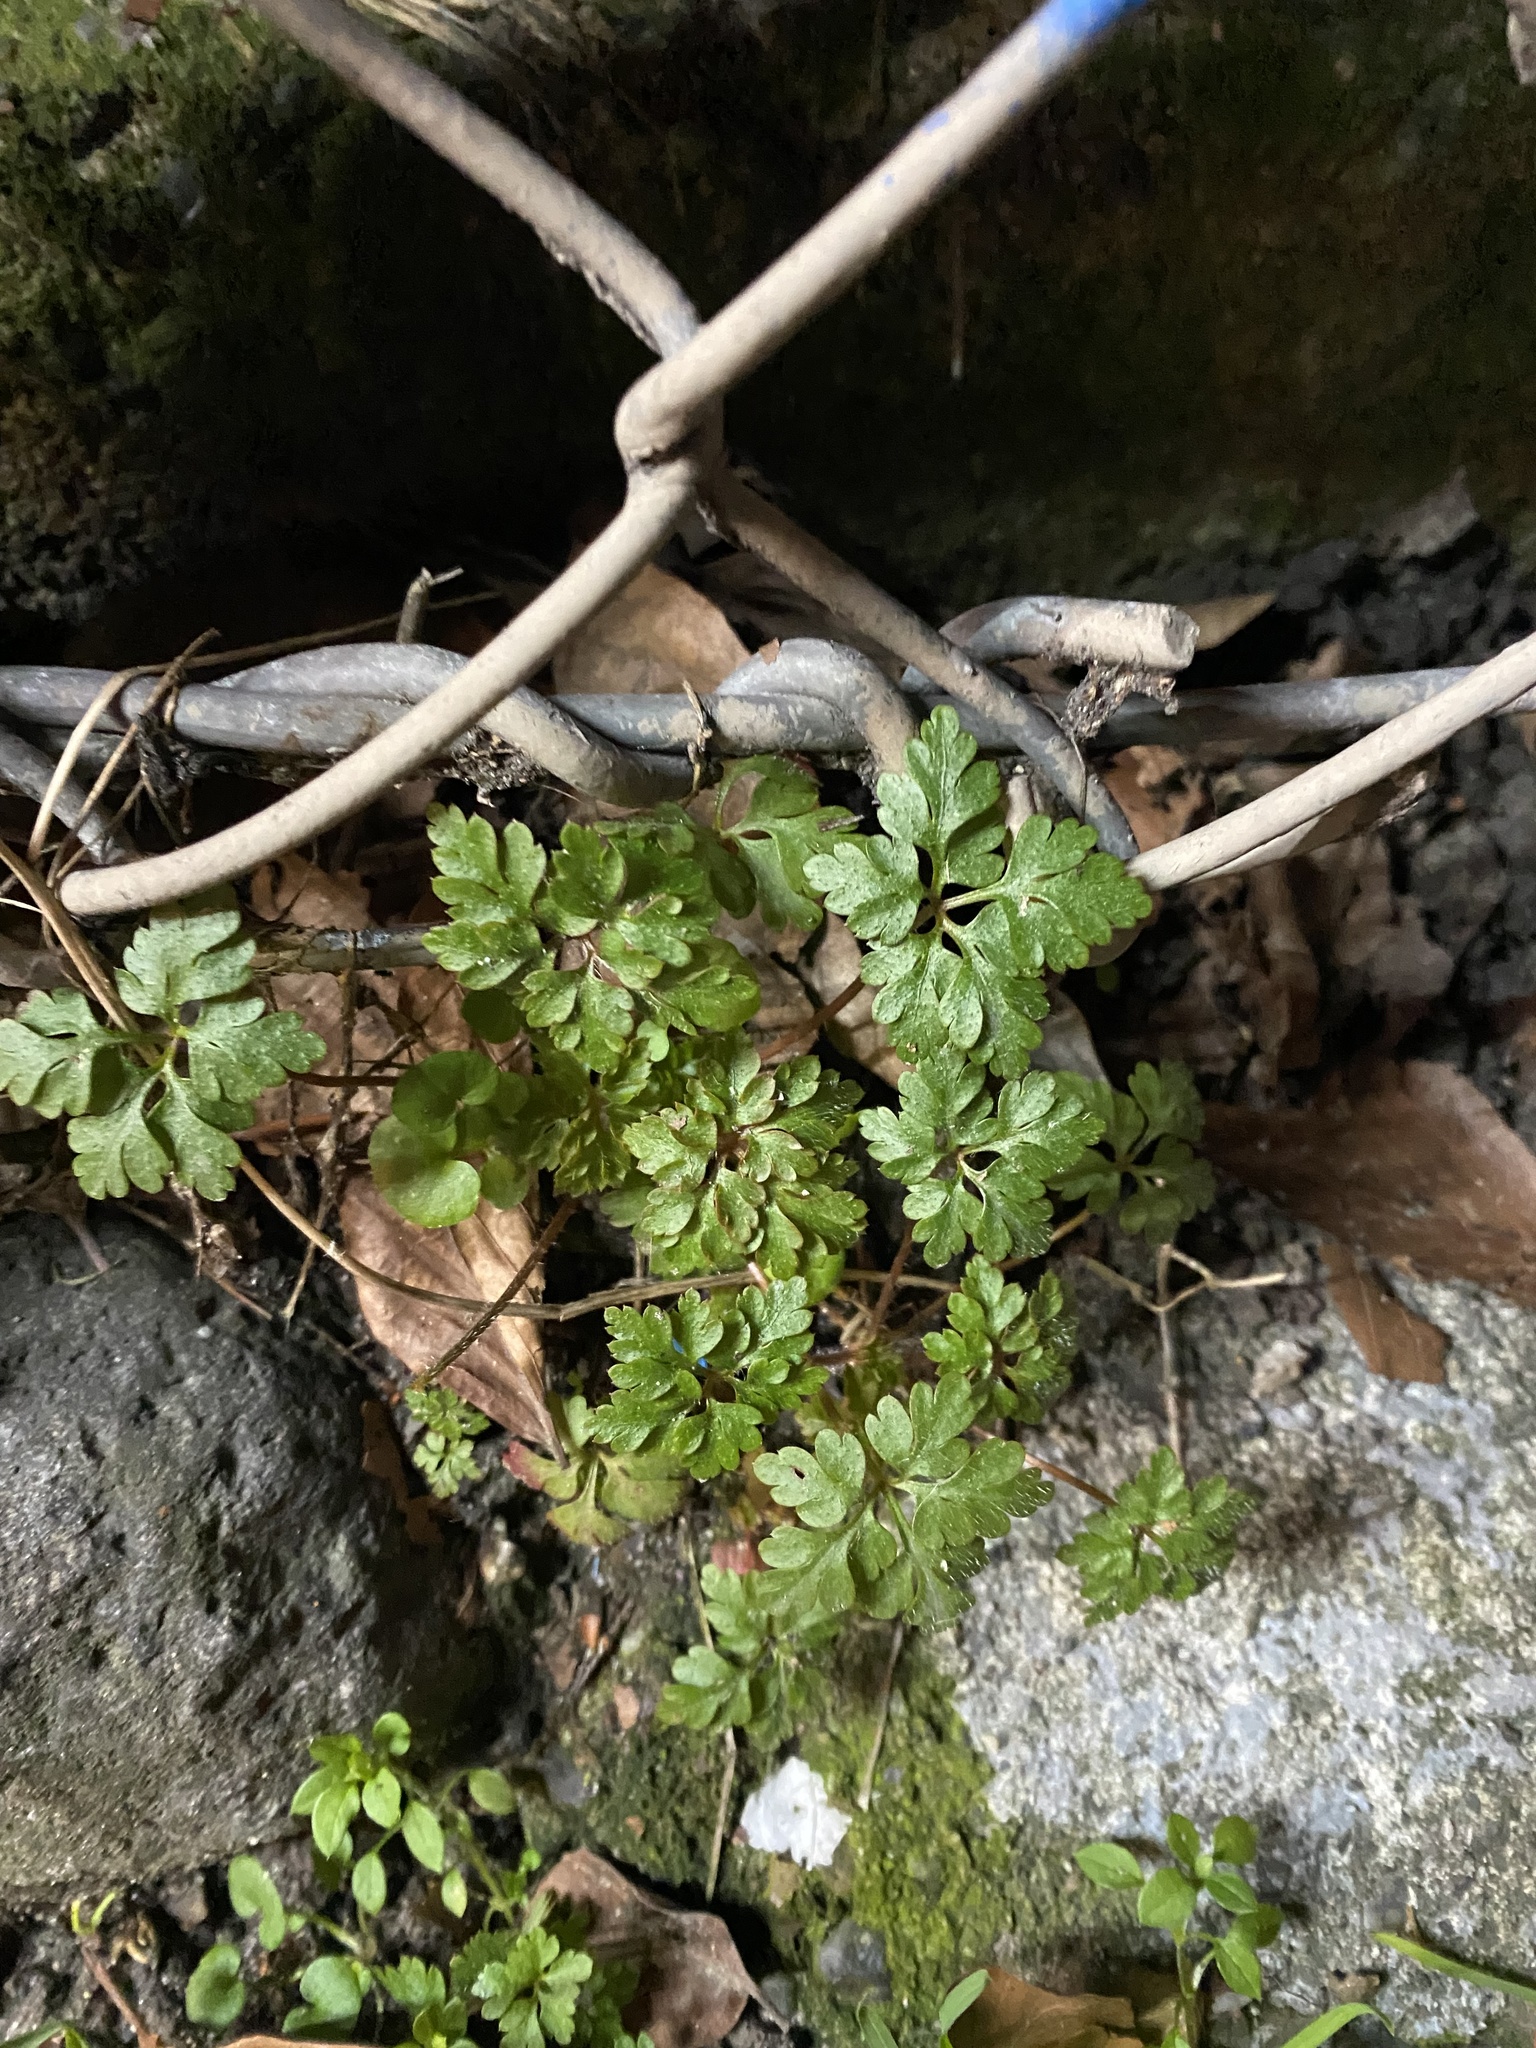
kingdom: Plantae
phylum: Tracheophyta
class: Magnoliopsida
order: Geraniales
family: Geraniaceae
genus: Geranium
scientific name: Geranium robertianum
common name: Herb-robert
